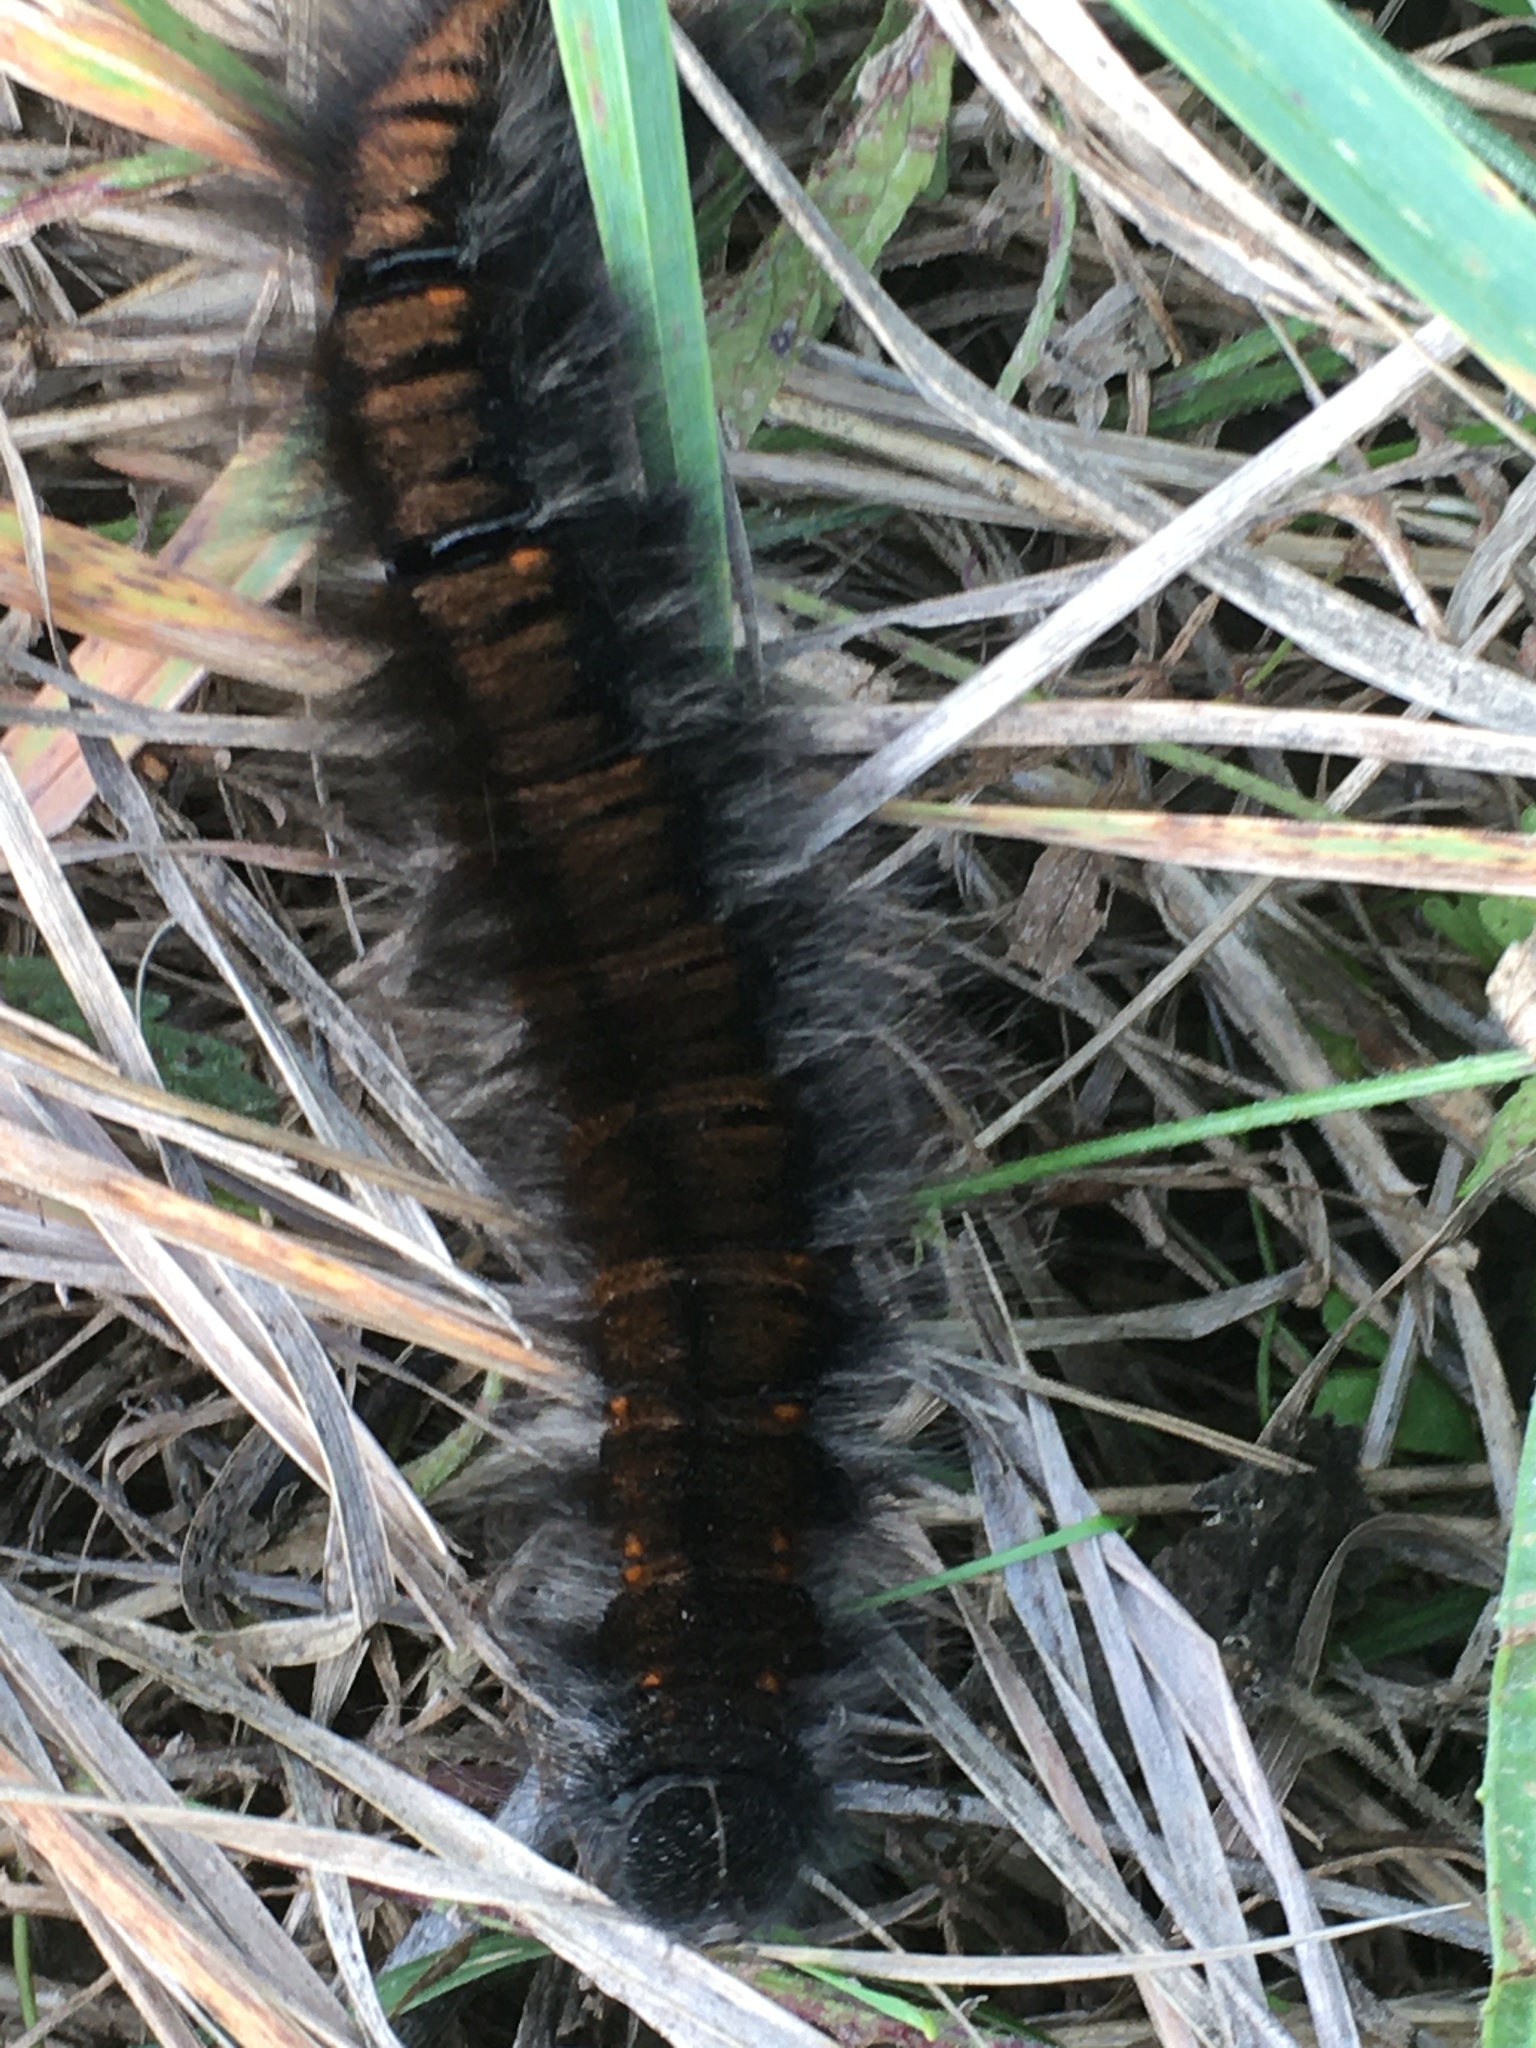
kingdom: Animalia
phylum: Arthropoda
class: Insecta
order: Lepidoptera
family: Lasiocampidae
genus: Macrothylacia
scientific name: Macrothylacia rubi
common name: Fox moth
